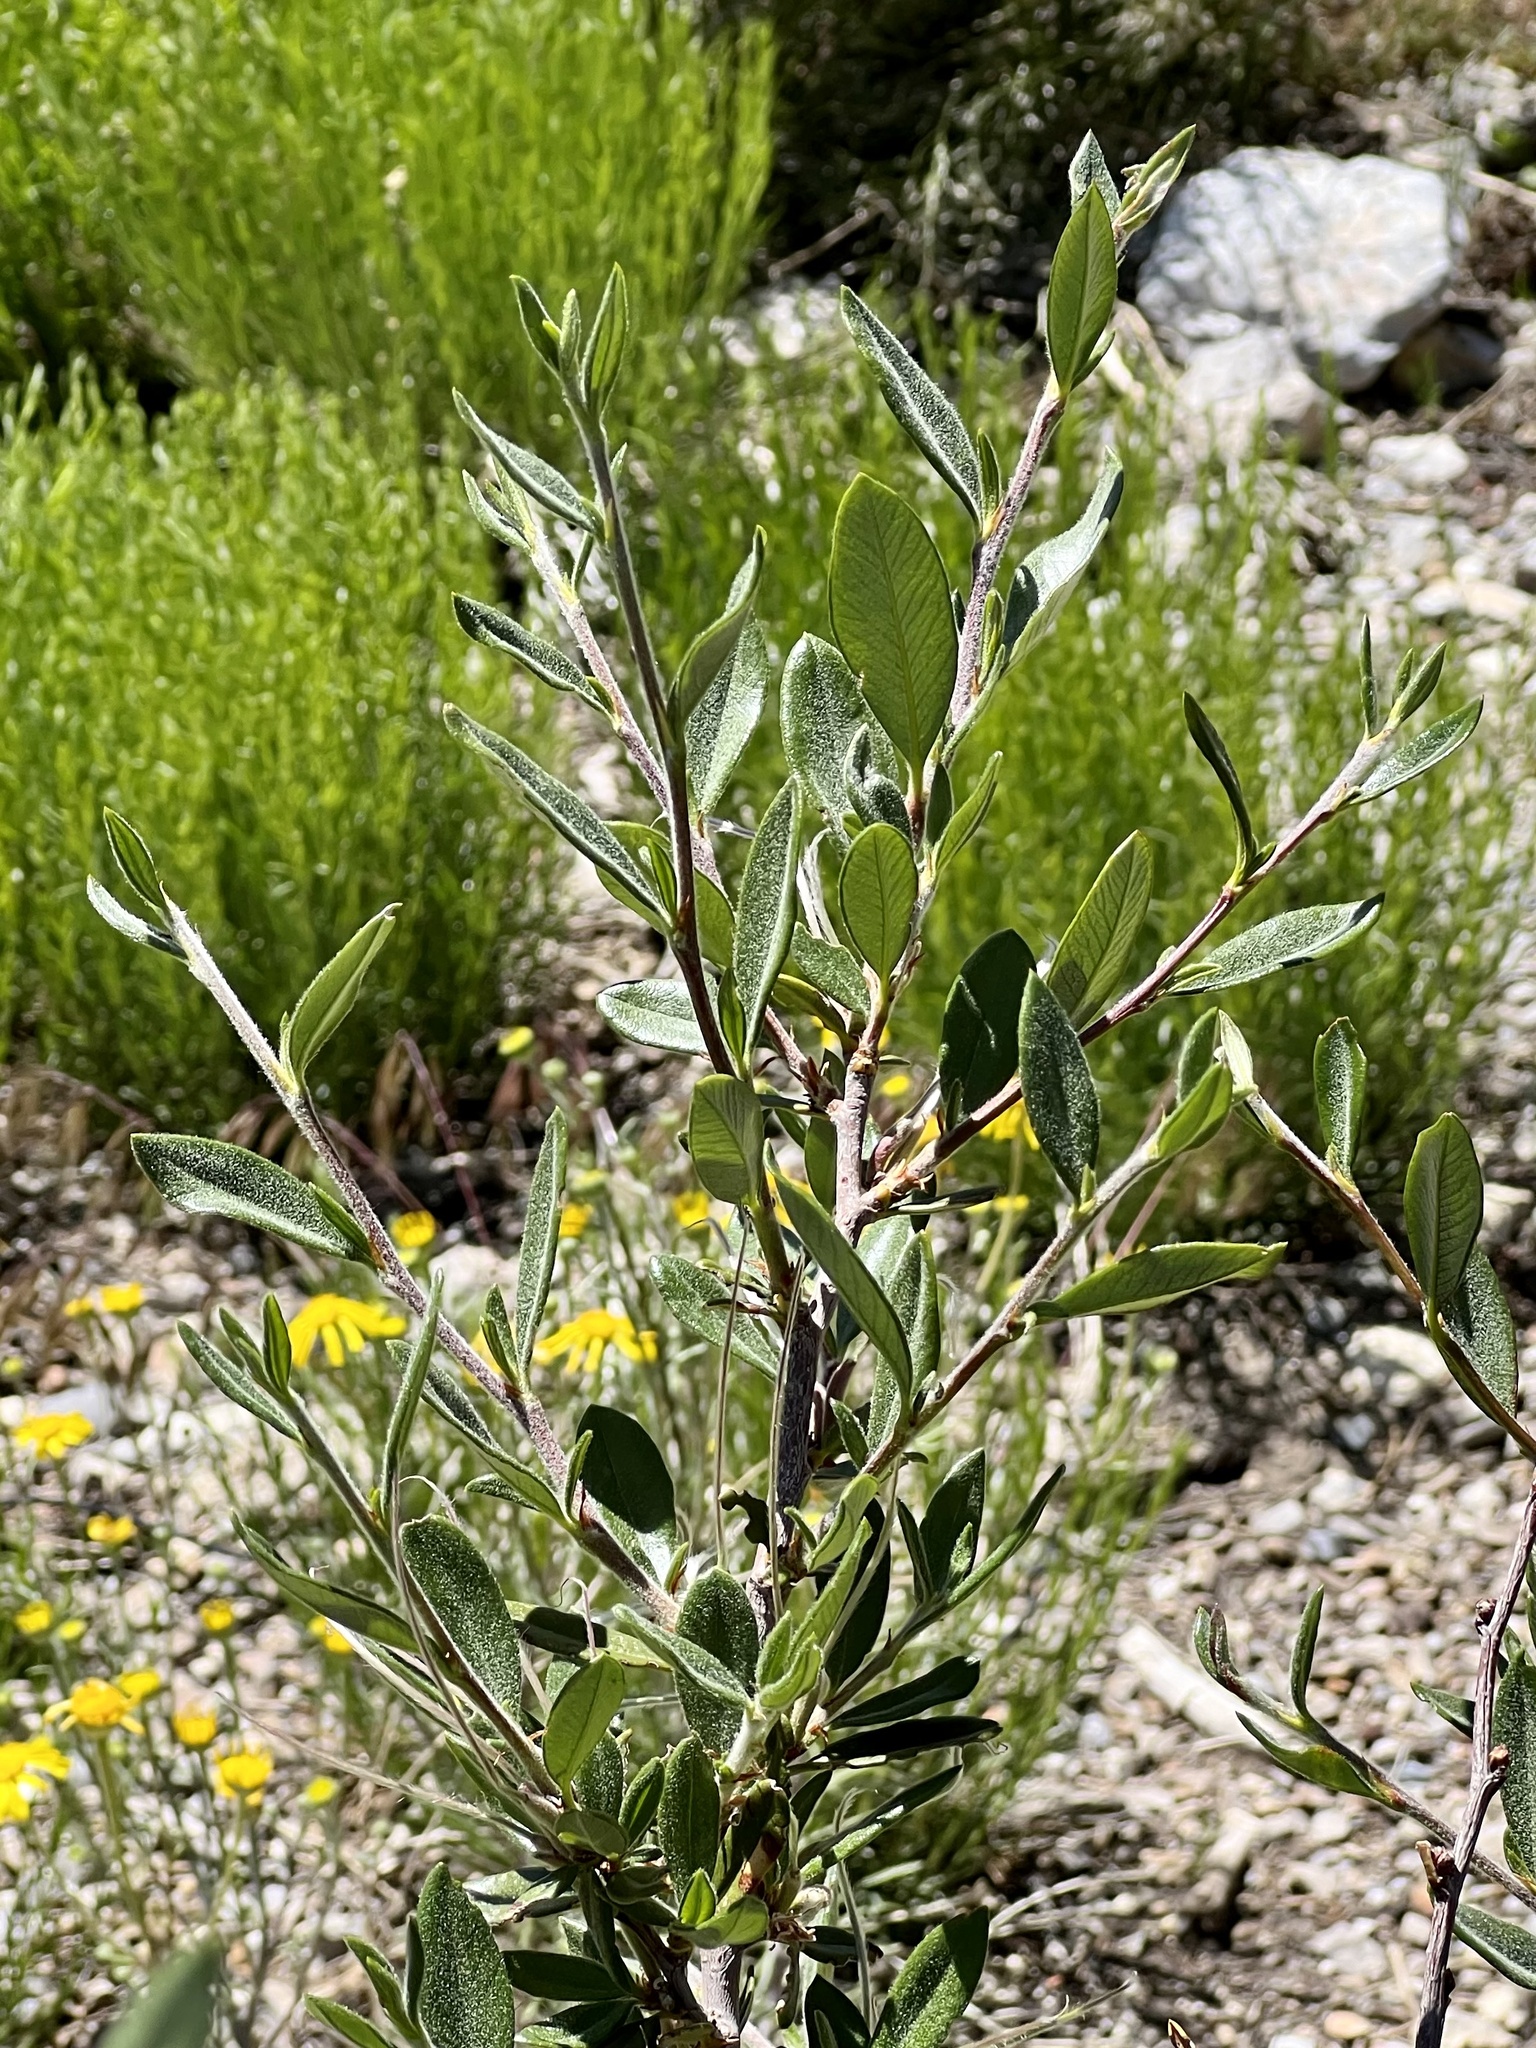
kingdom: Plantae
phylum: Tracheophyta
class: Magnoliopsida
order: Rosales
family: Rosaceae
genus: Cercocarpus
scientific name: Cercocarpus ledifolius
